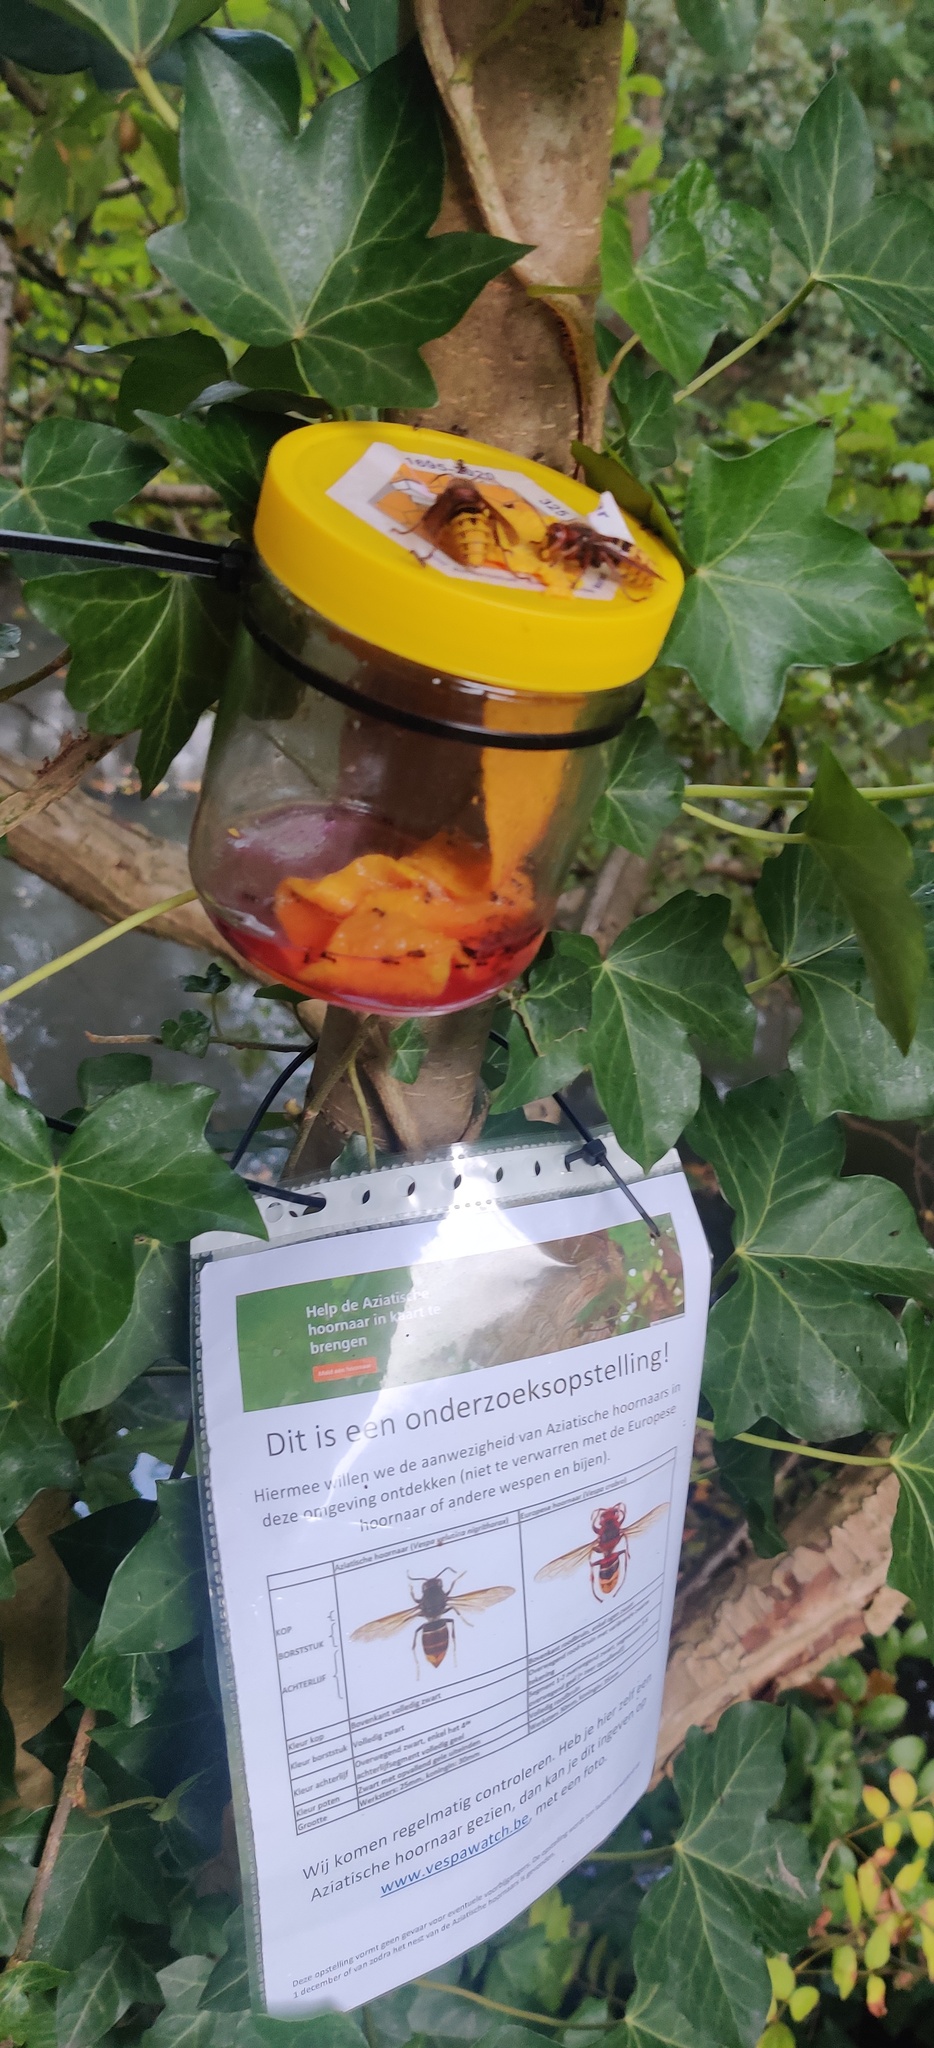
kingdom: Animalia
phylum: Arthropoda
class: Insecta
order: Hymenoptera
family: Vespidae
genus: Vespa
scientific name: Vespa crabro
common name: Hornet
